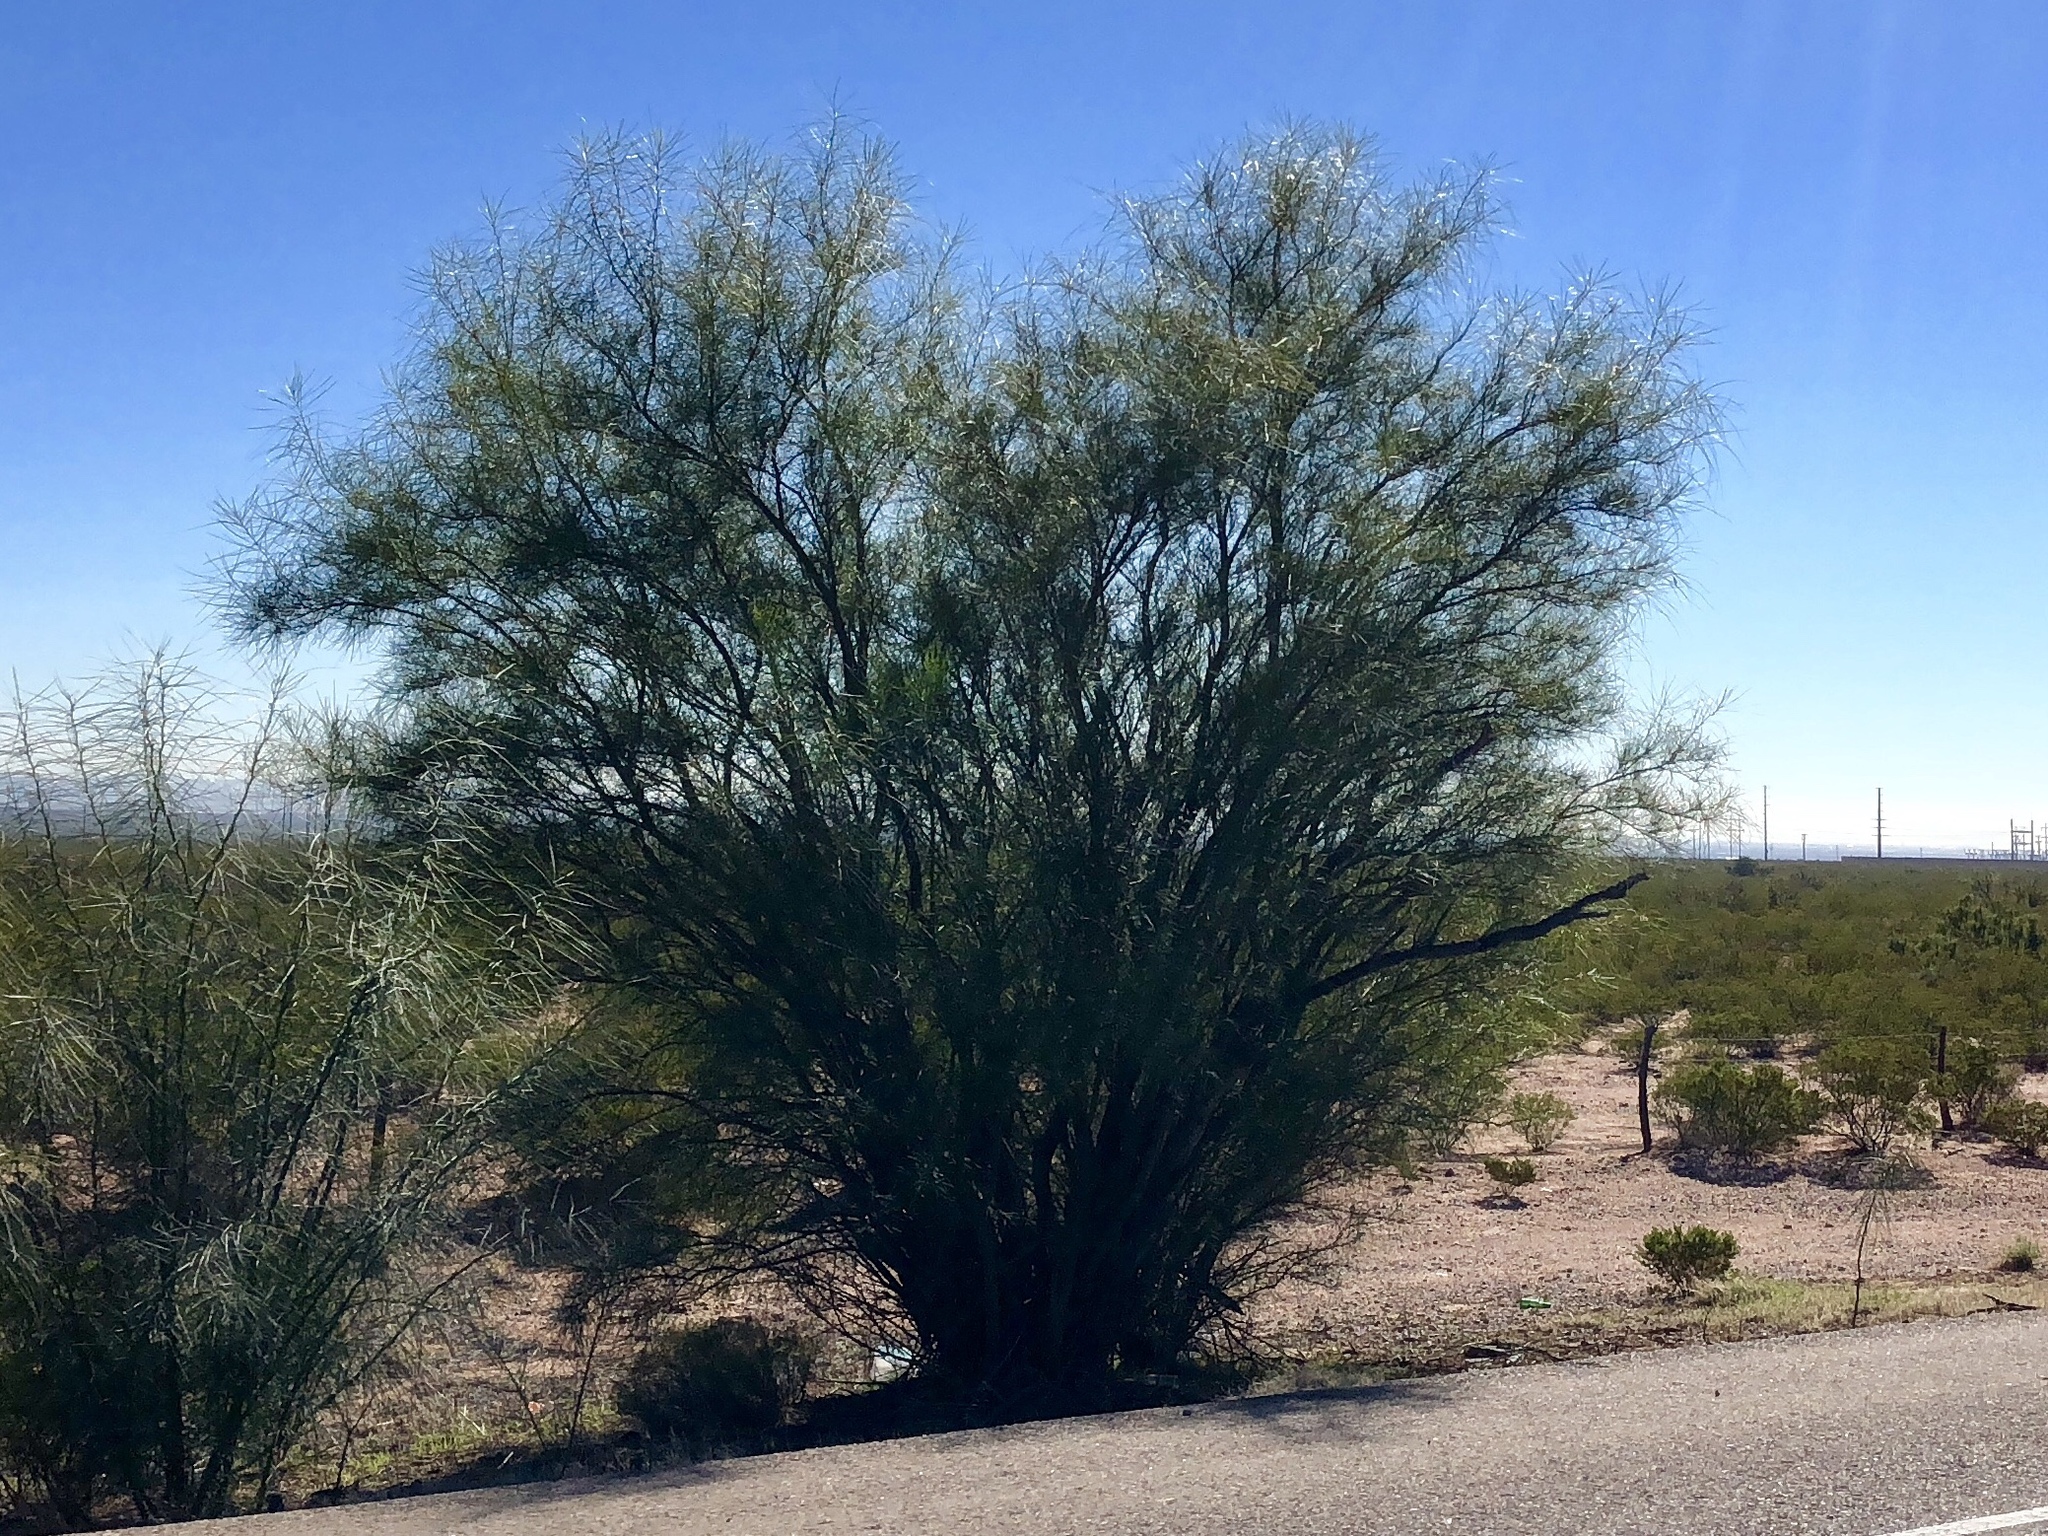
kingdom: Plantae
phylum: Tracheophyta
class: Magnoliopsida
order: Fabales
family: Fabaceae
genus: Parkinsonia
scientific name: Parkinsonia aculeata
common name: Jerusalem thorn
